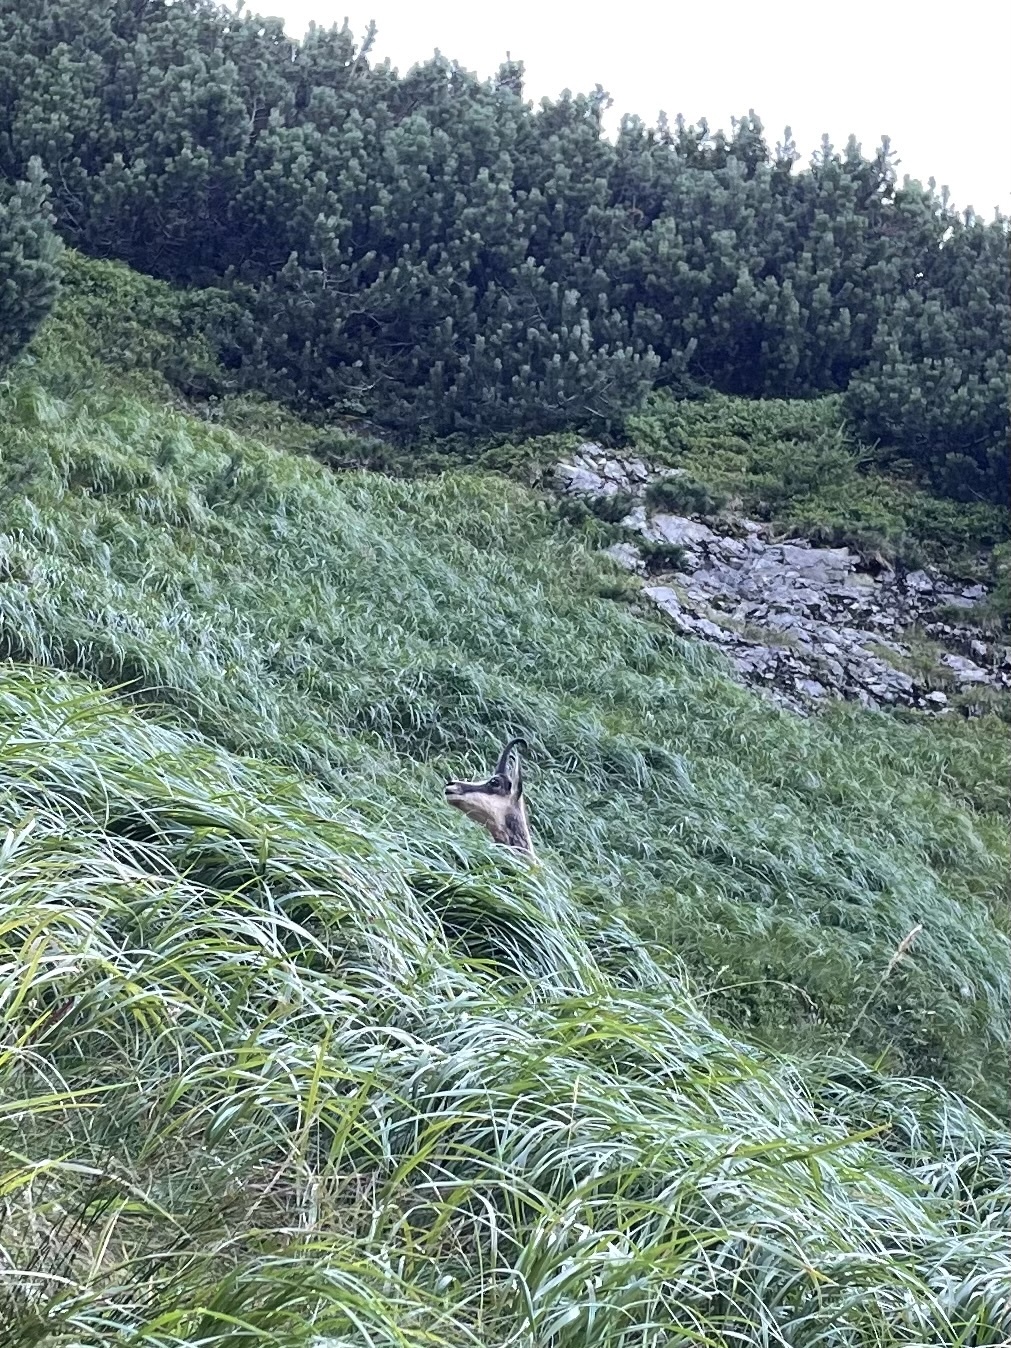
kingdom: Animalia
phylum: Chordata
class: Mammalia
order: Artiodactyla
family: Bovidae
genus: Rupicapra
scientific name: Rupicapra rupicapra
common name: Chamois
